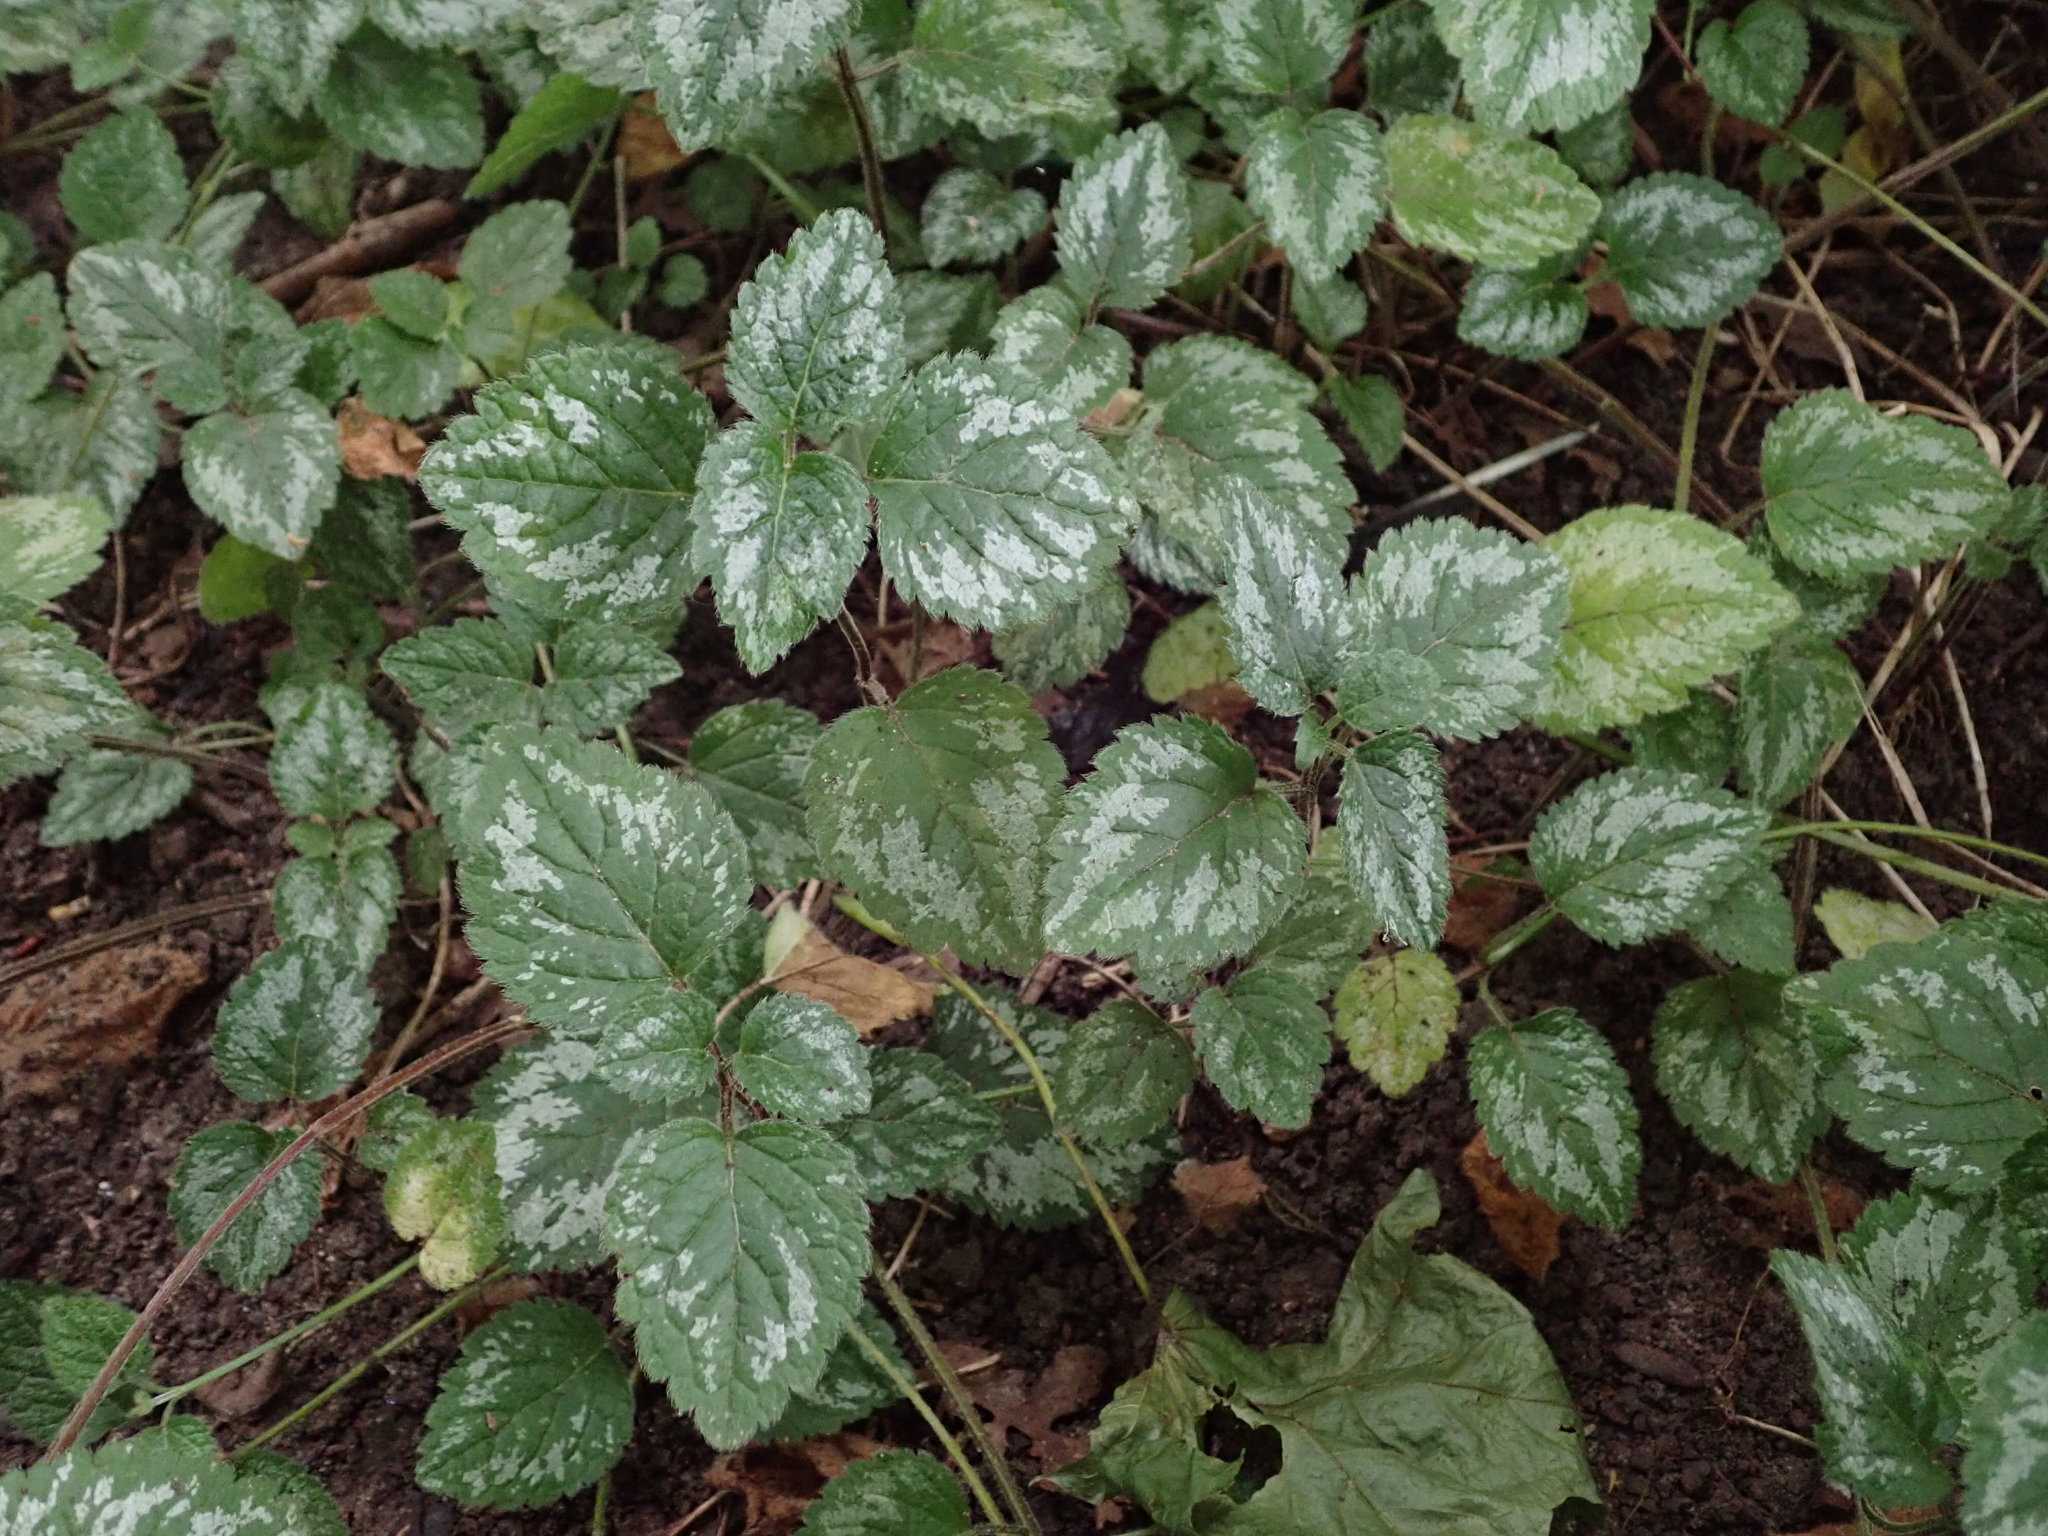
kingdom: Plantae
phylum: Tracheophyta
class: Magnoliopsida
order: Lamiales
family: Lamiaceae
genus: Lamium
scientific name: Lamium galeobdolon
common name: Yellow archangel
